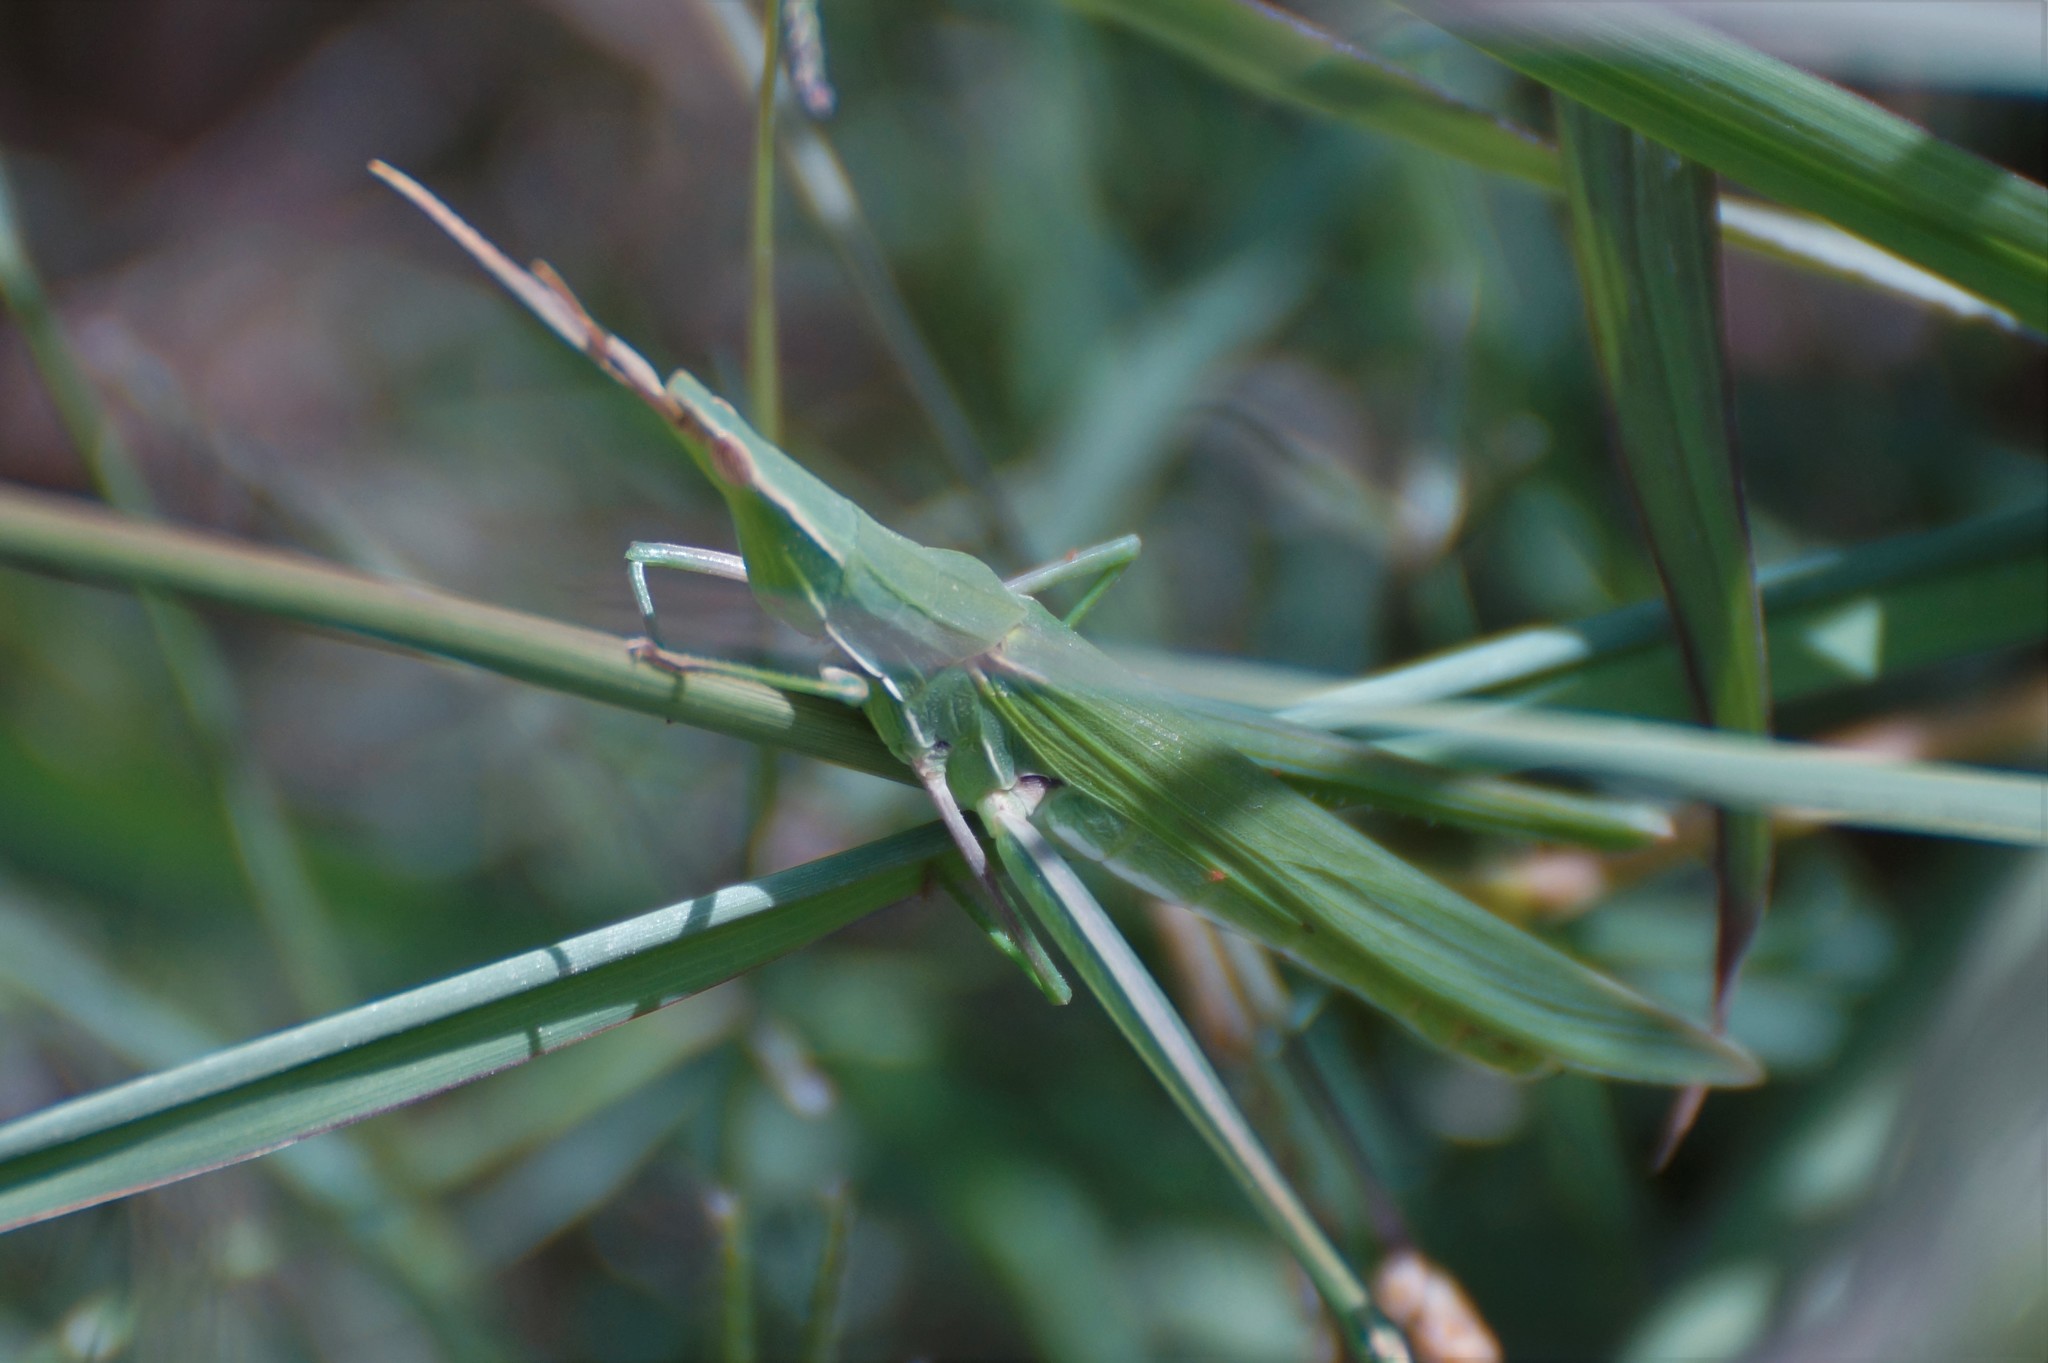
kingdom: Animalia
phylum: Arthropoda
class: Insecta
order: Orthoptera
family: Acrididae
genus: Acrida
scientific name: Acrida conica
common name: Giant green slantface
